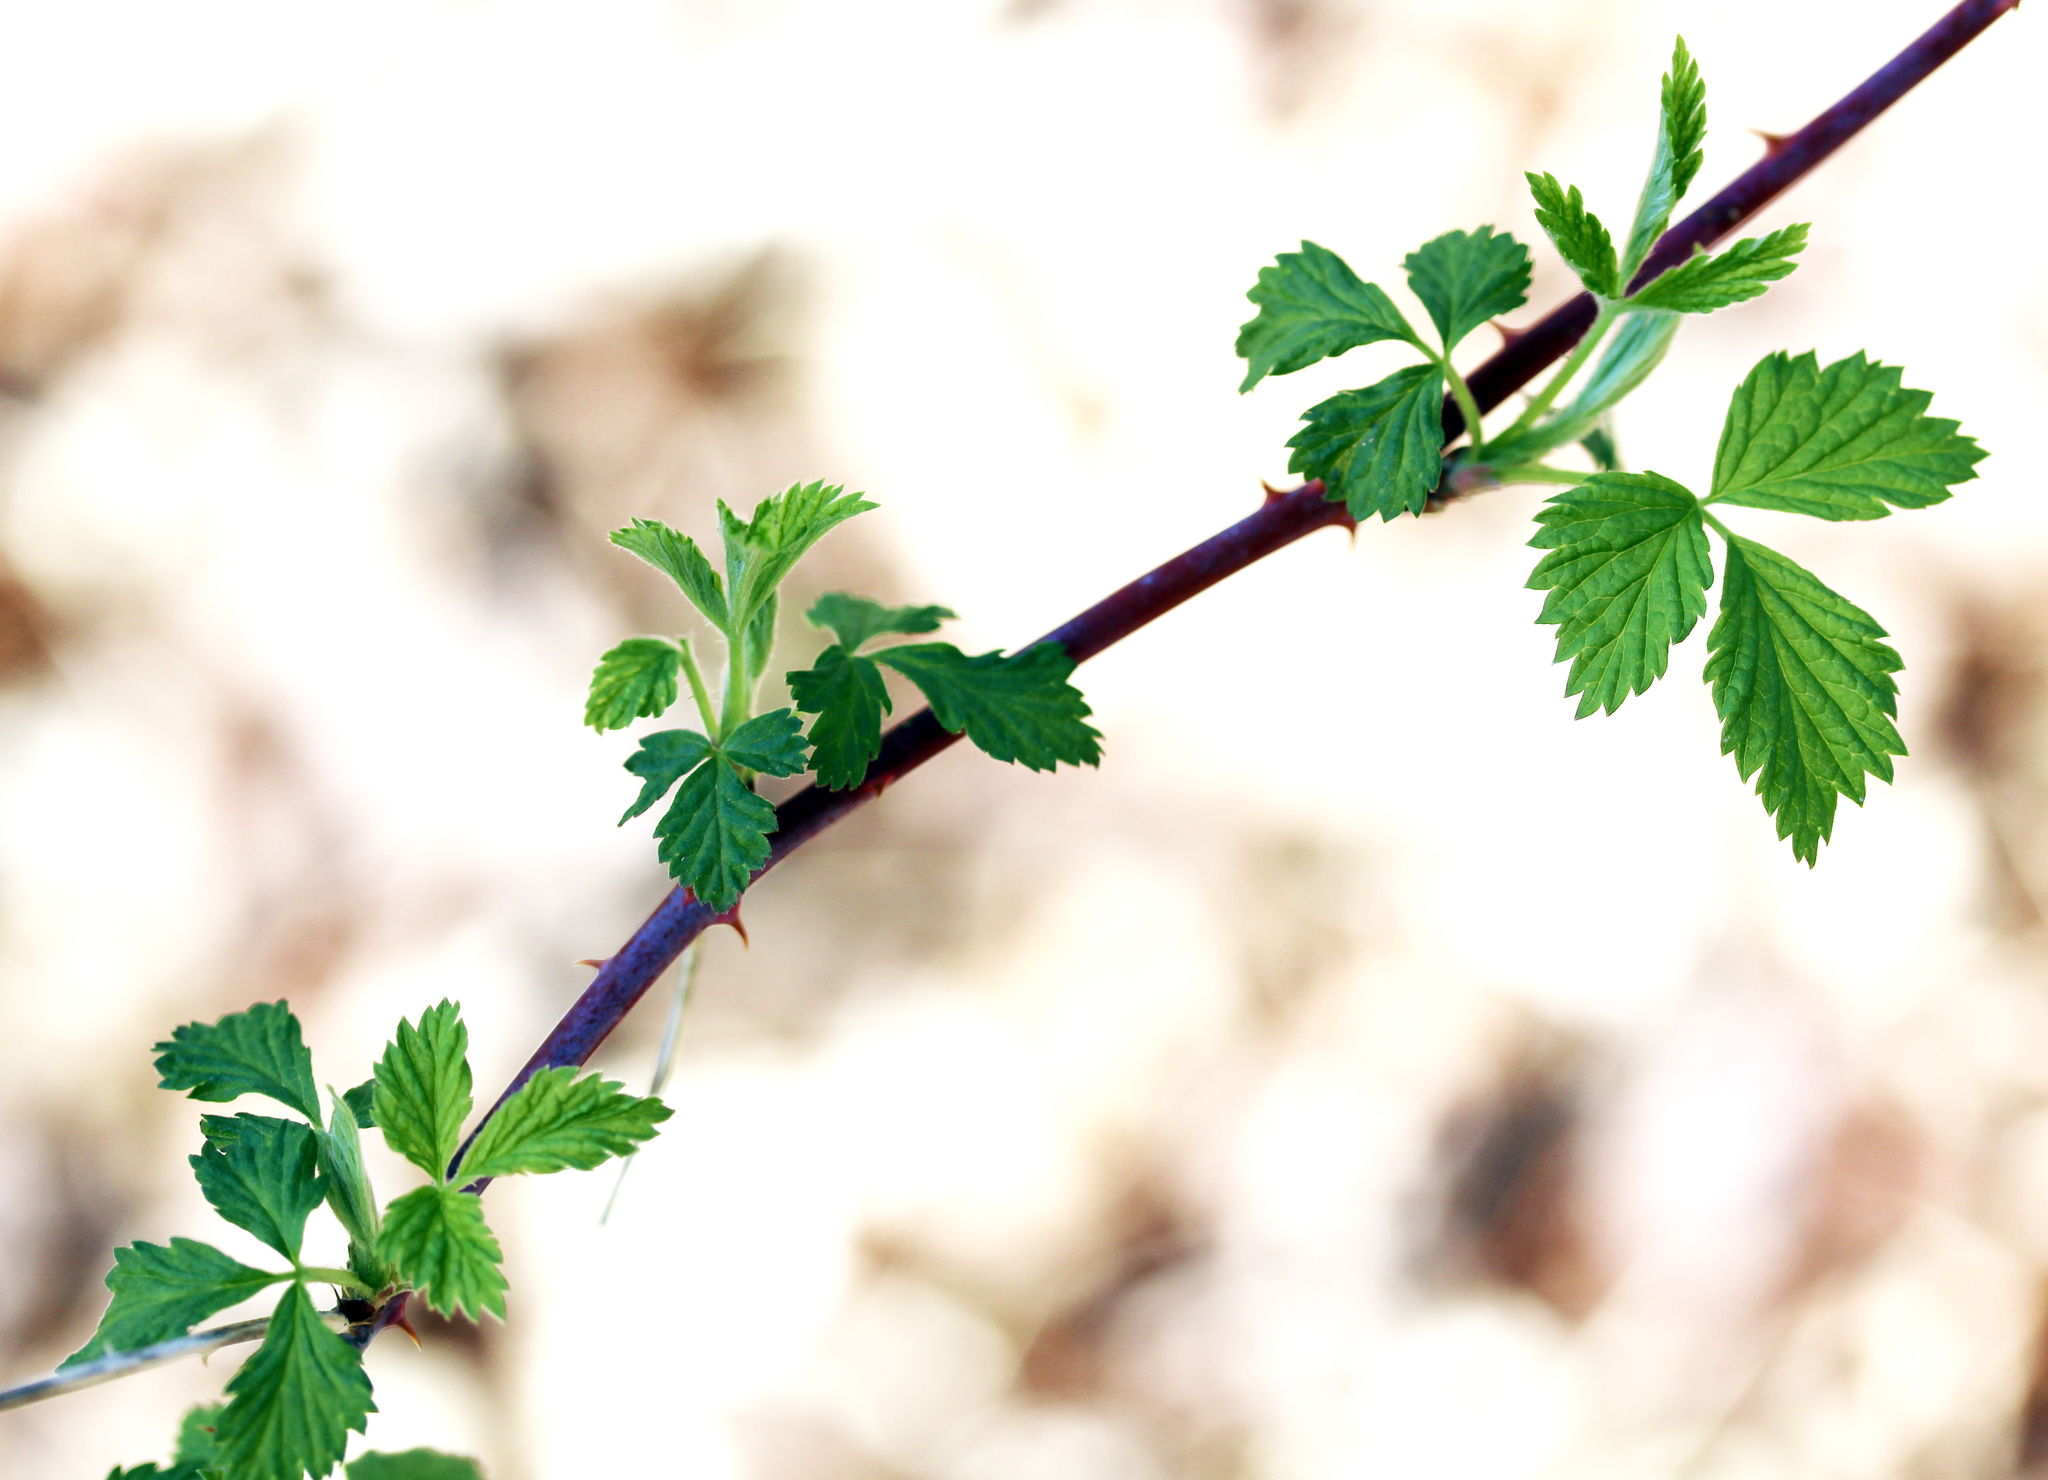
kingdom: Plantae
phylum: Tracheophyta
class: Magnoliopsida
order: Rosales
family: Rosaceae
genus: Rubus
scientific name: Rubus occidentalis
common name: Black raspberry
